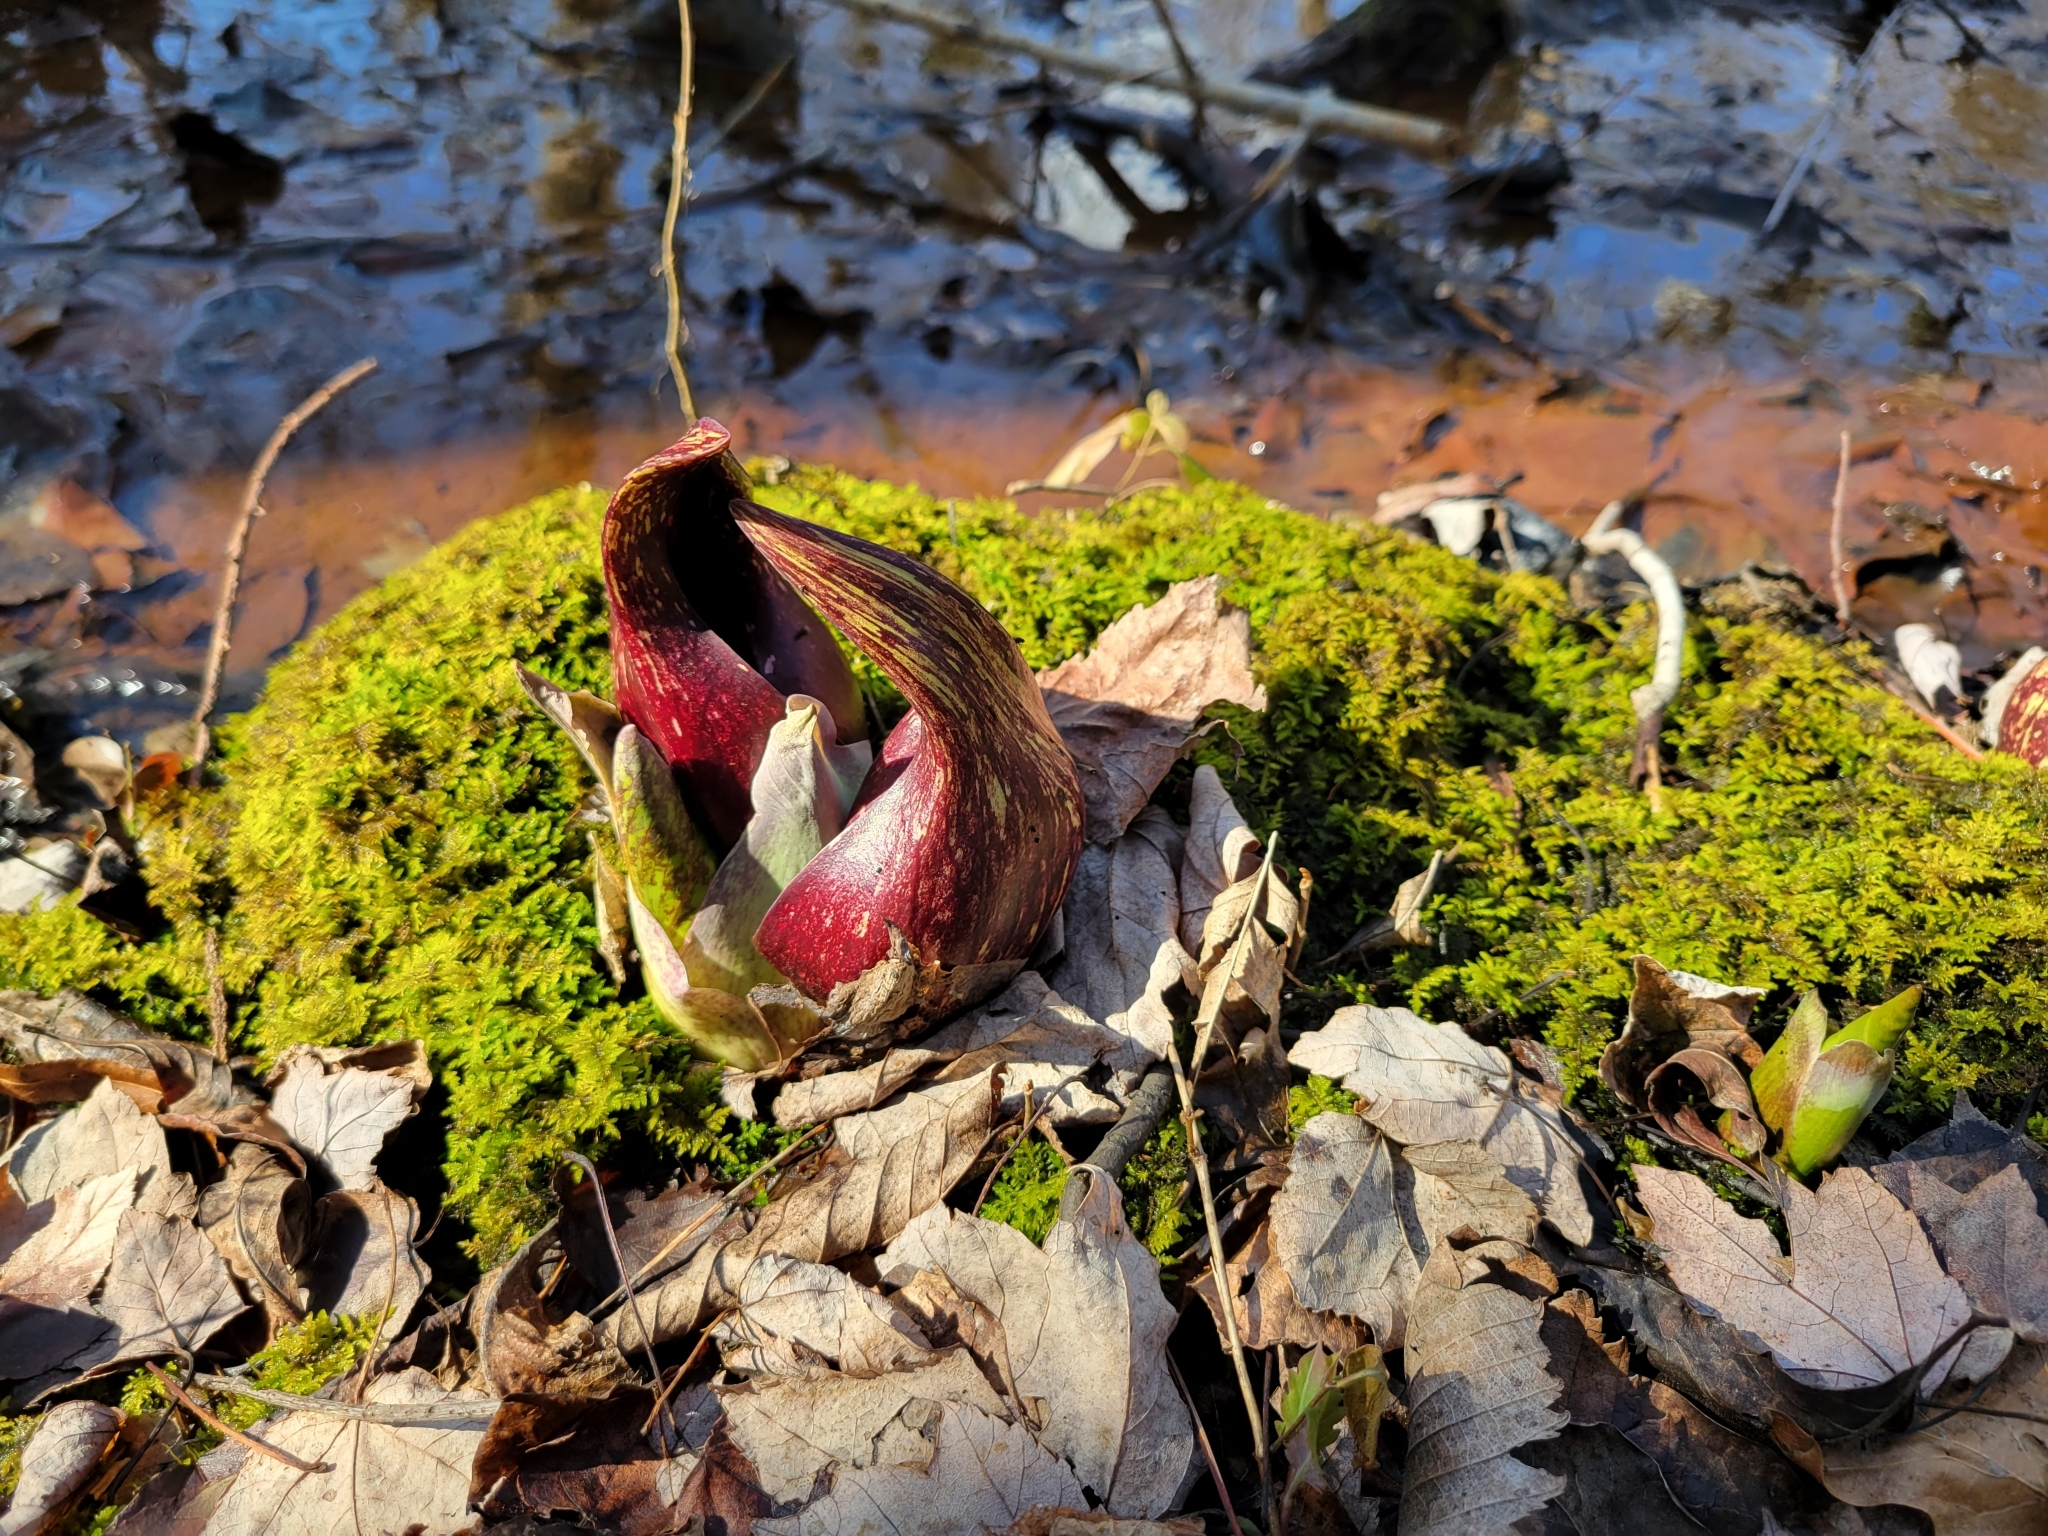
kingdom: Plantae
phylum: Tracheophyta
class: Liliopsida
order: Alismatales
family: Araceae
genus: Symplocarpus
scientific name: Symplocarpus foetidus
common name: Eastern skunk cabbage
